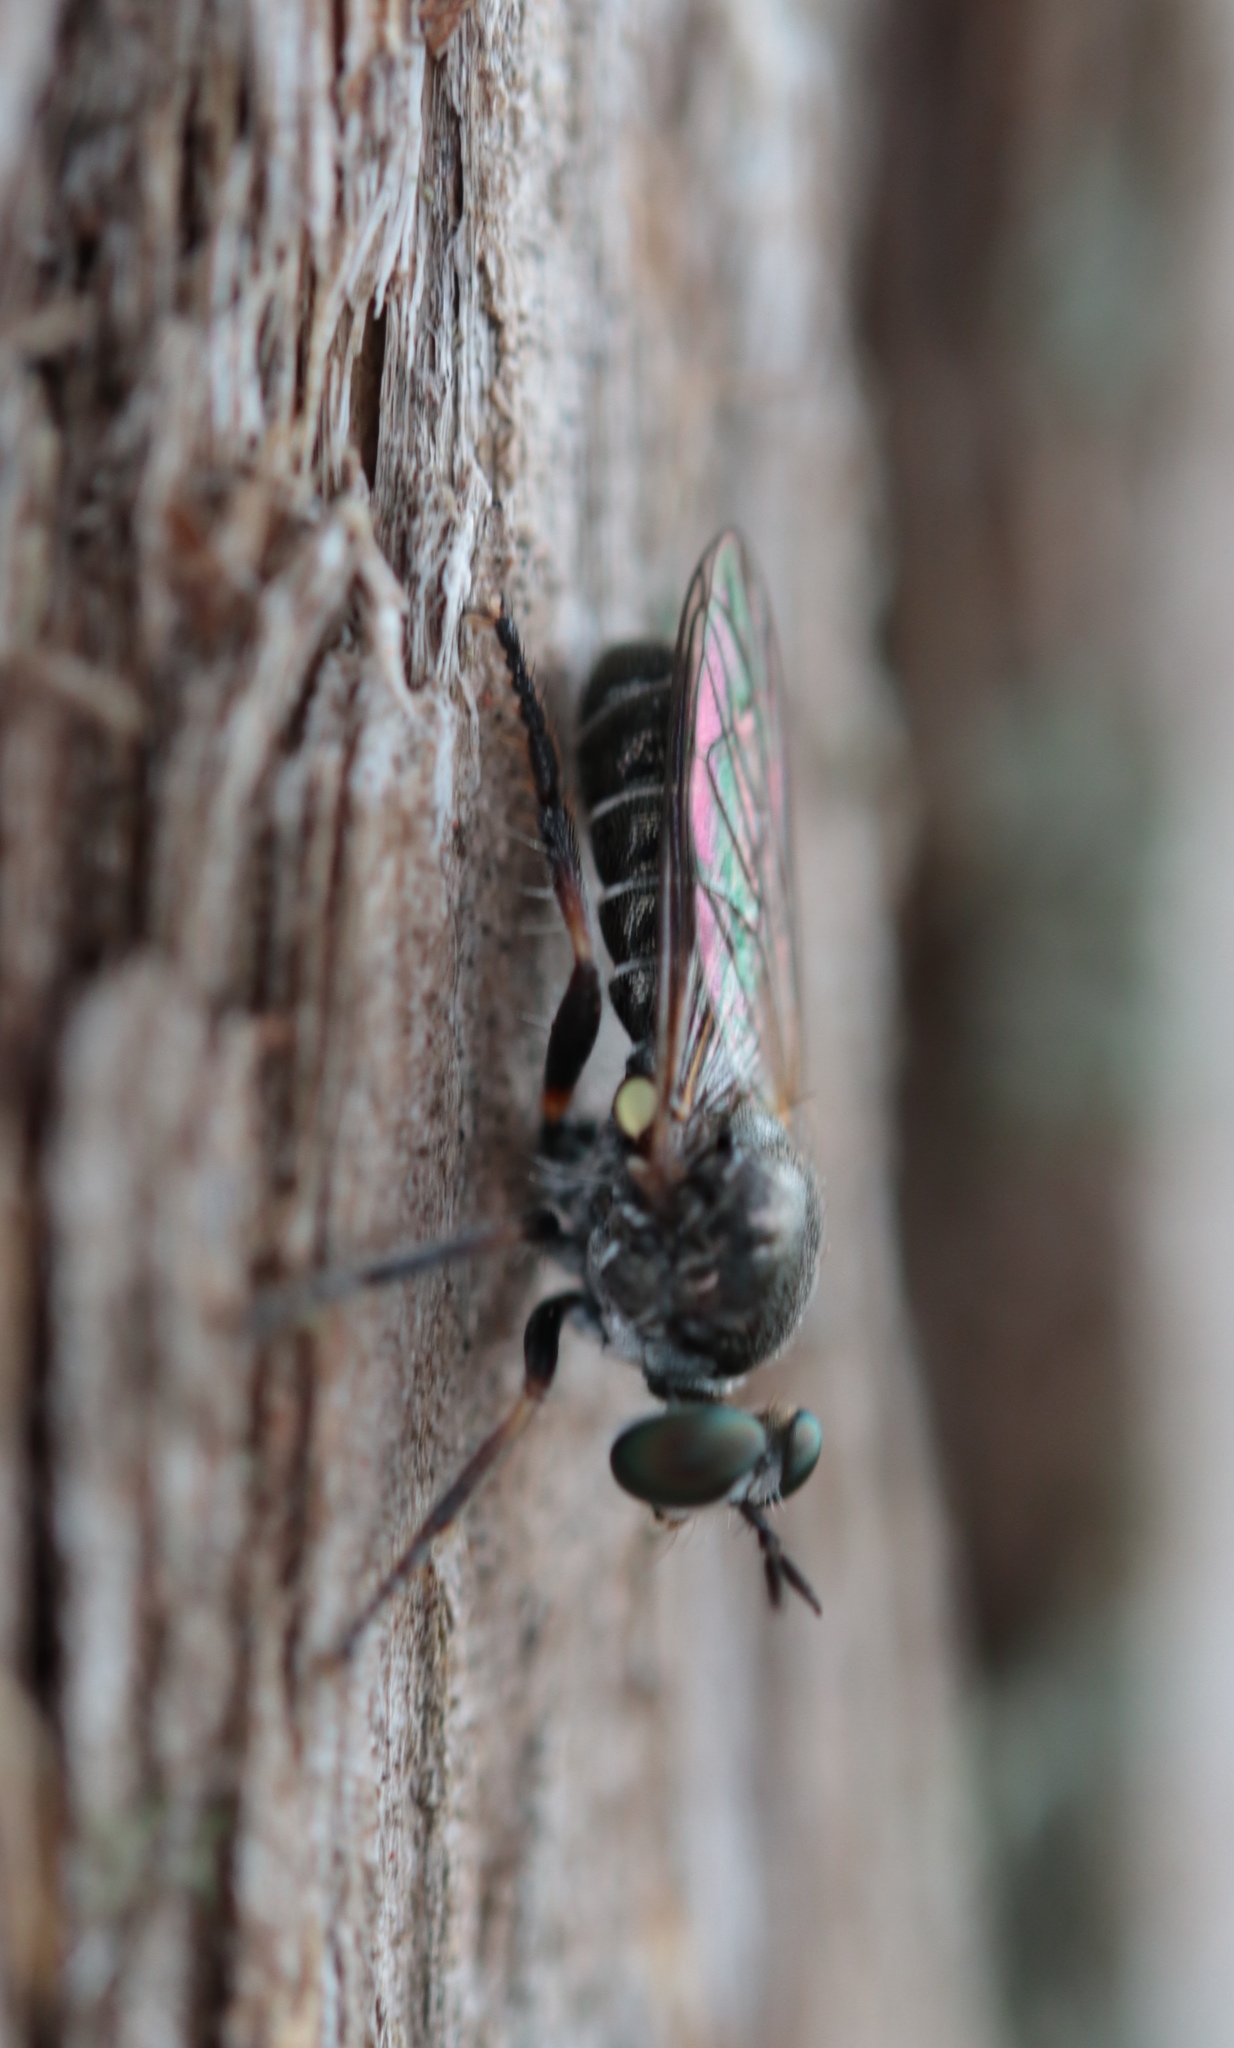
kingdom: Animalia
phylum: Arthropoda
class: Insecta
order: Diptera
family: Asilidae
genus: Atomosia
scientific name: Atomosia puella
